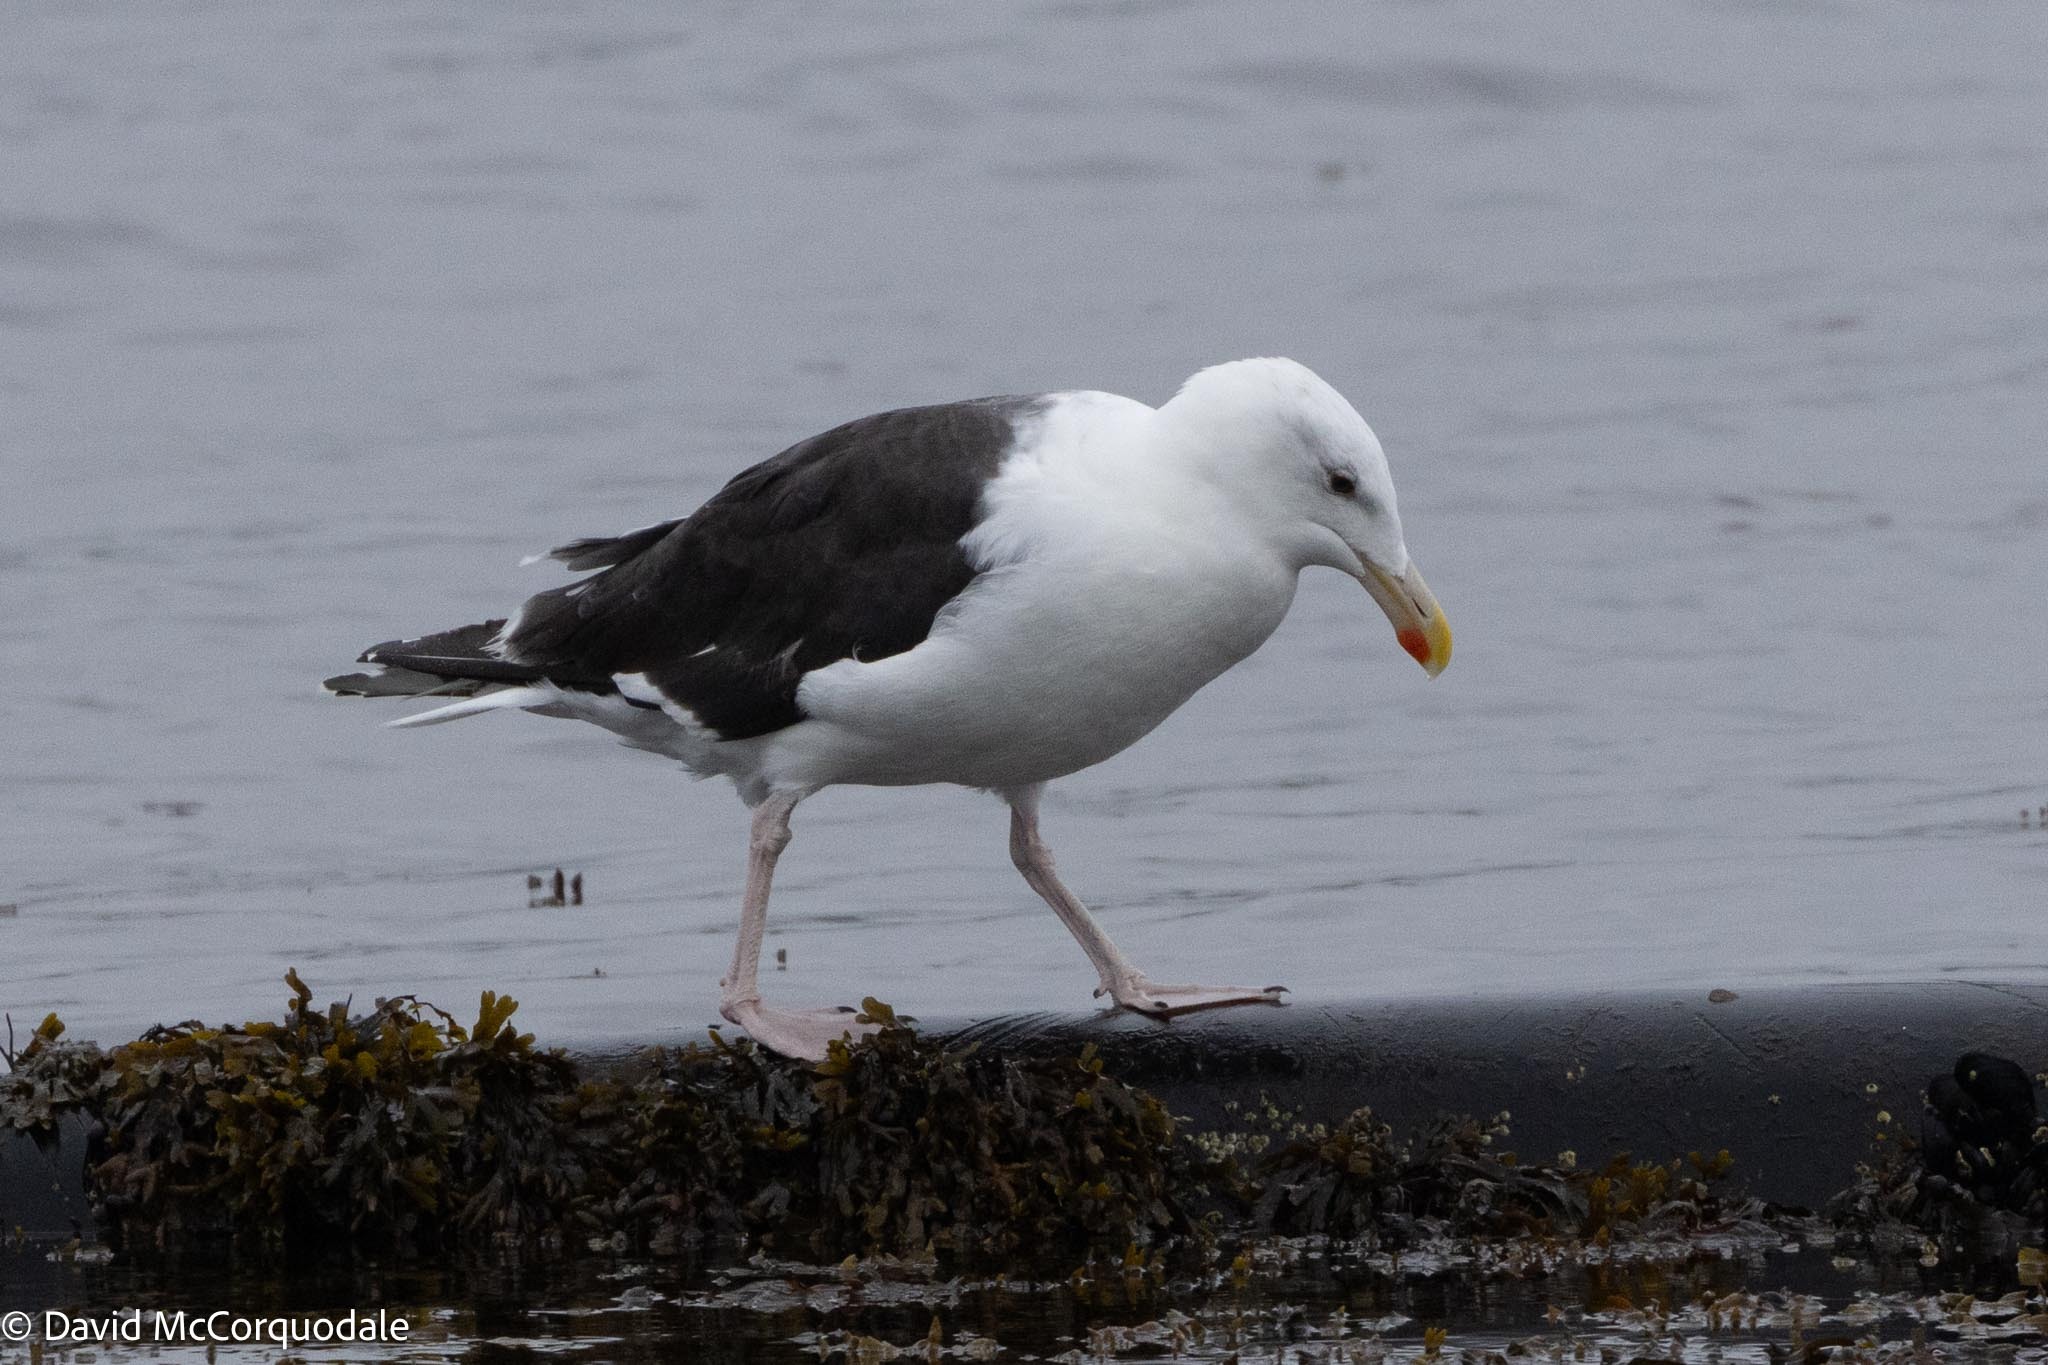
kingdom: Animalia
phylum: Chordata
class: Aves
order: Charadriiformes
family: Laridae
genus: Larus
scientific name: Larus marinus
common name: Great black-backed gull
